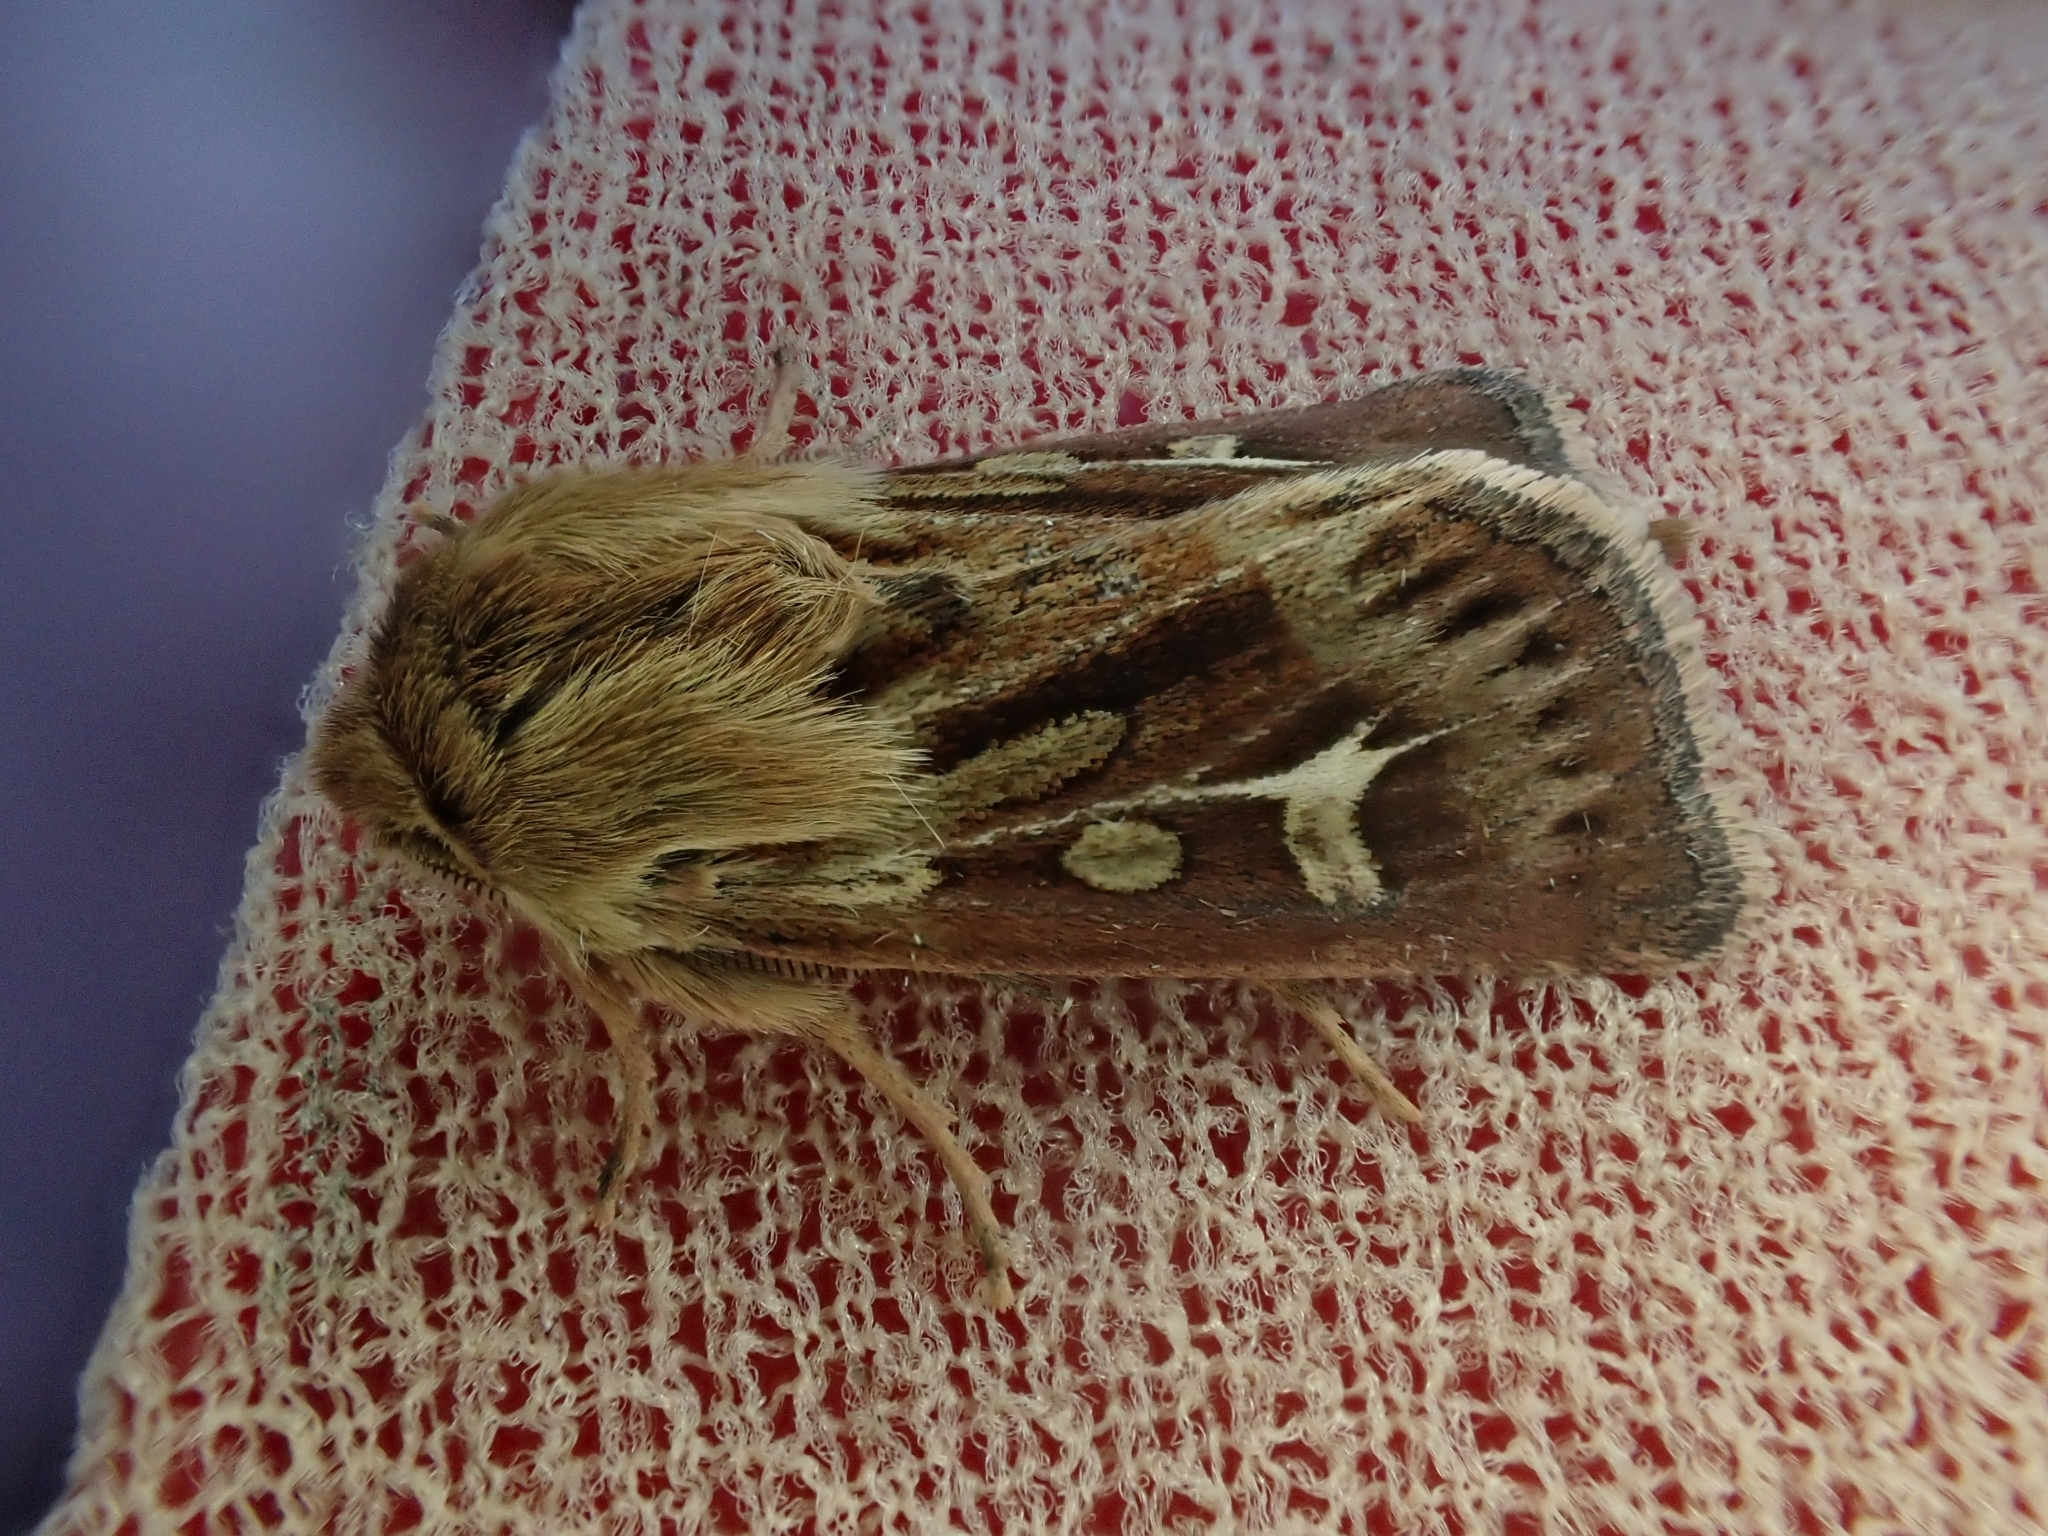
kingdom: Animalia
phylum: Arthropoda
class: Insecta
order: Lepidoptera
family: Noctuidae
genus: Cerapteryx
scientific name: Cerapteryx graminis
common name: Antler moth
